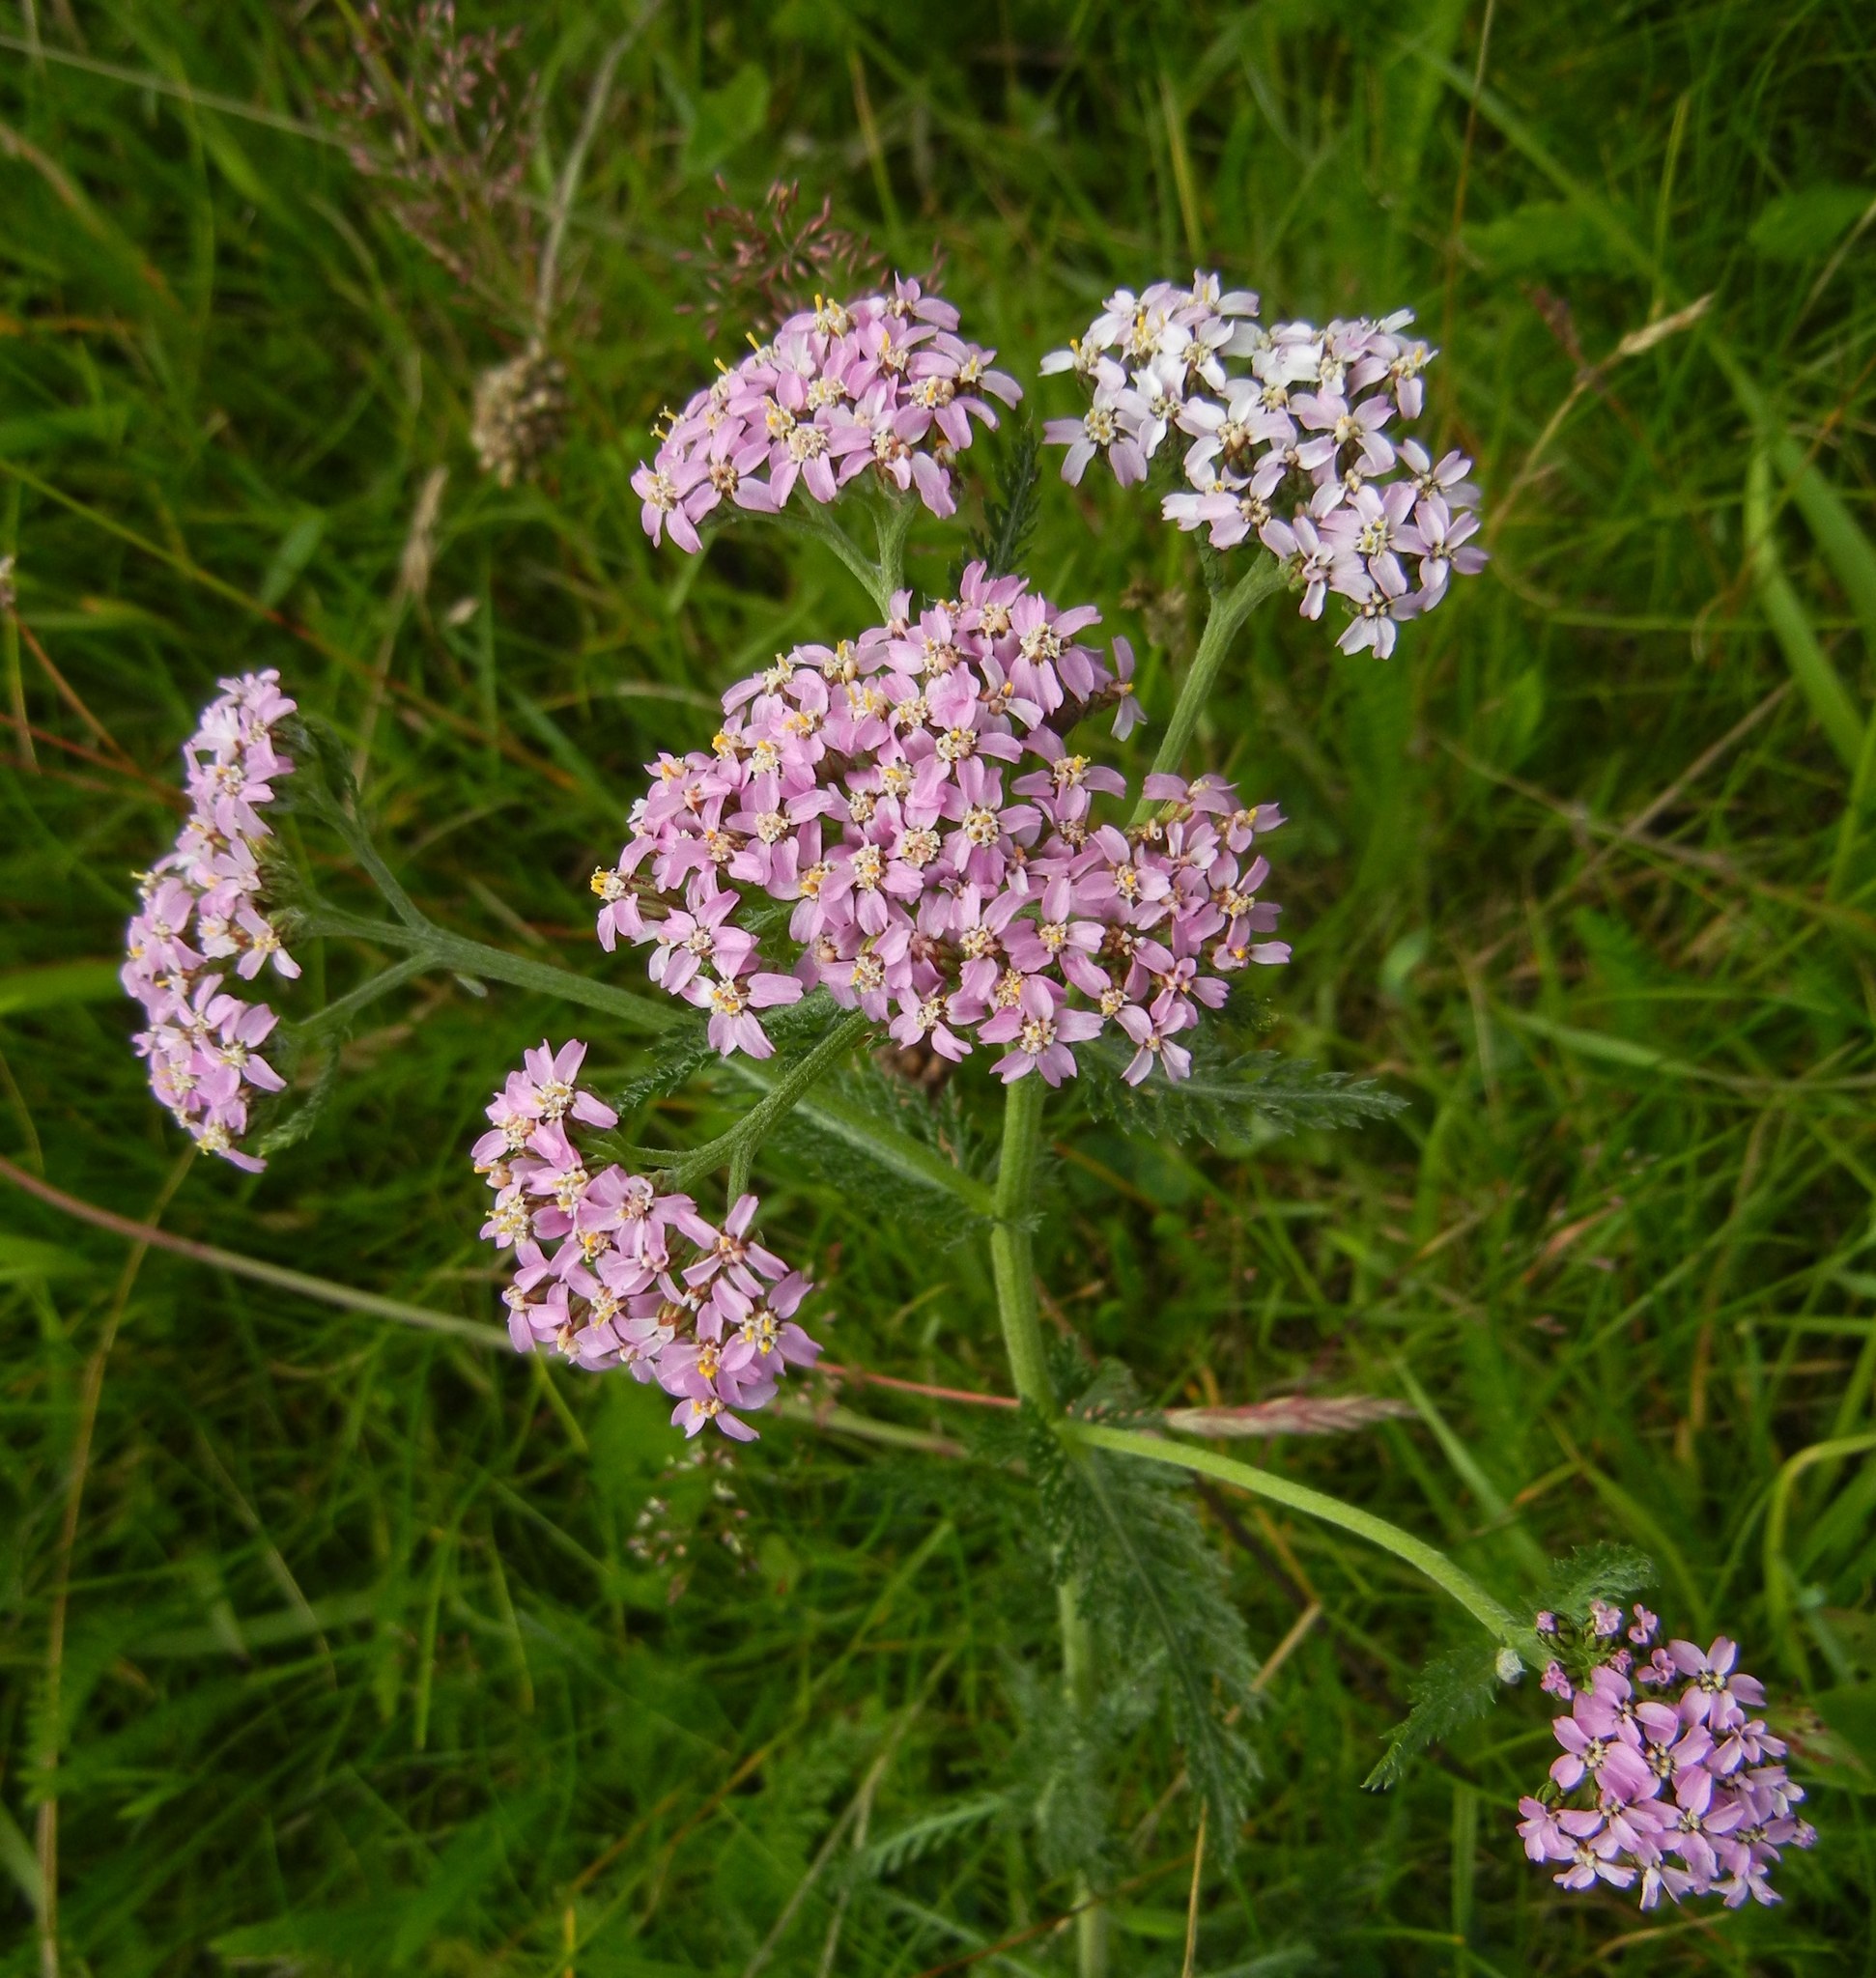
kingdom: Plantae
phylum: Tracheophyta
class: Magnoliopsida
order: Asterales
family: Asteraceae
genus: Achillea
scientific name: Achillea millefolium
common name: Yarrow
